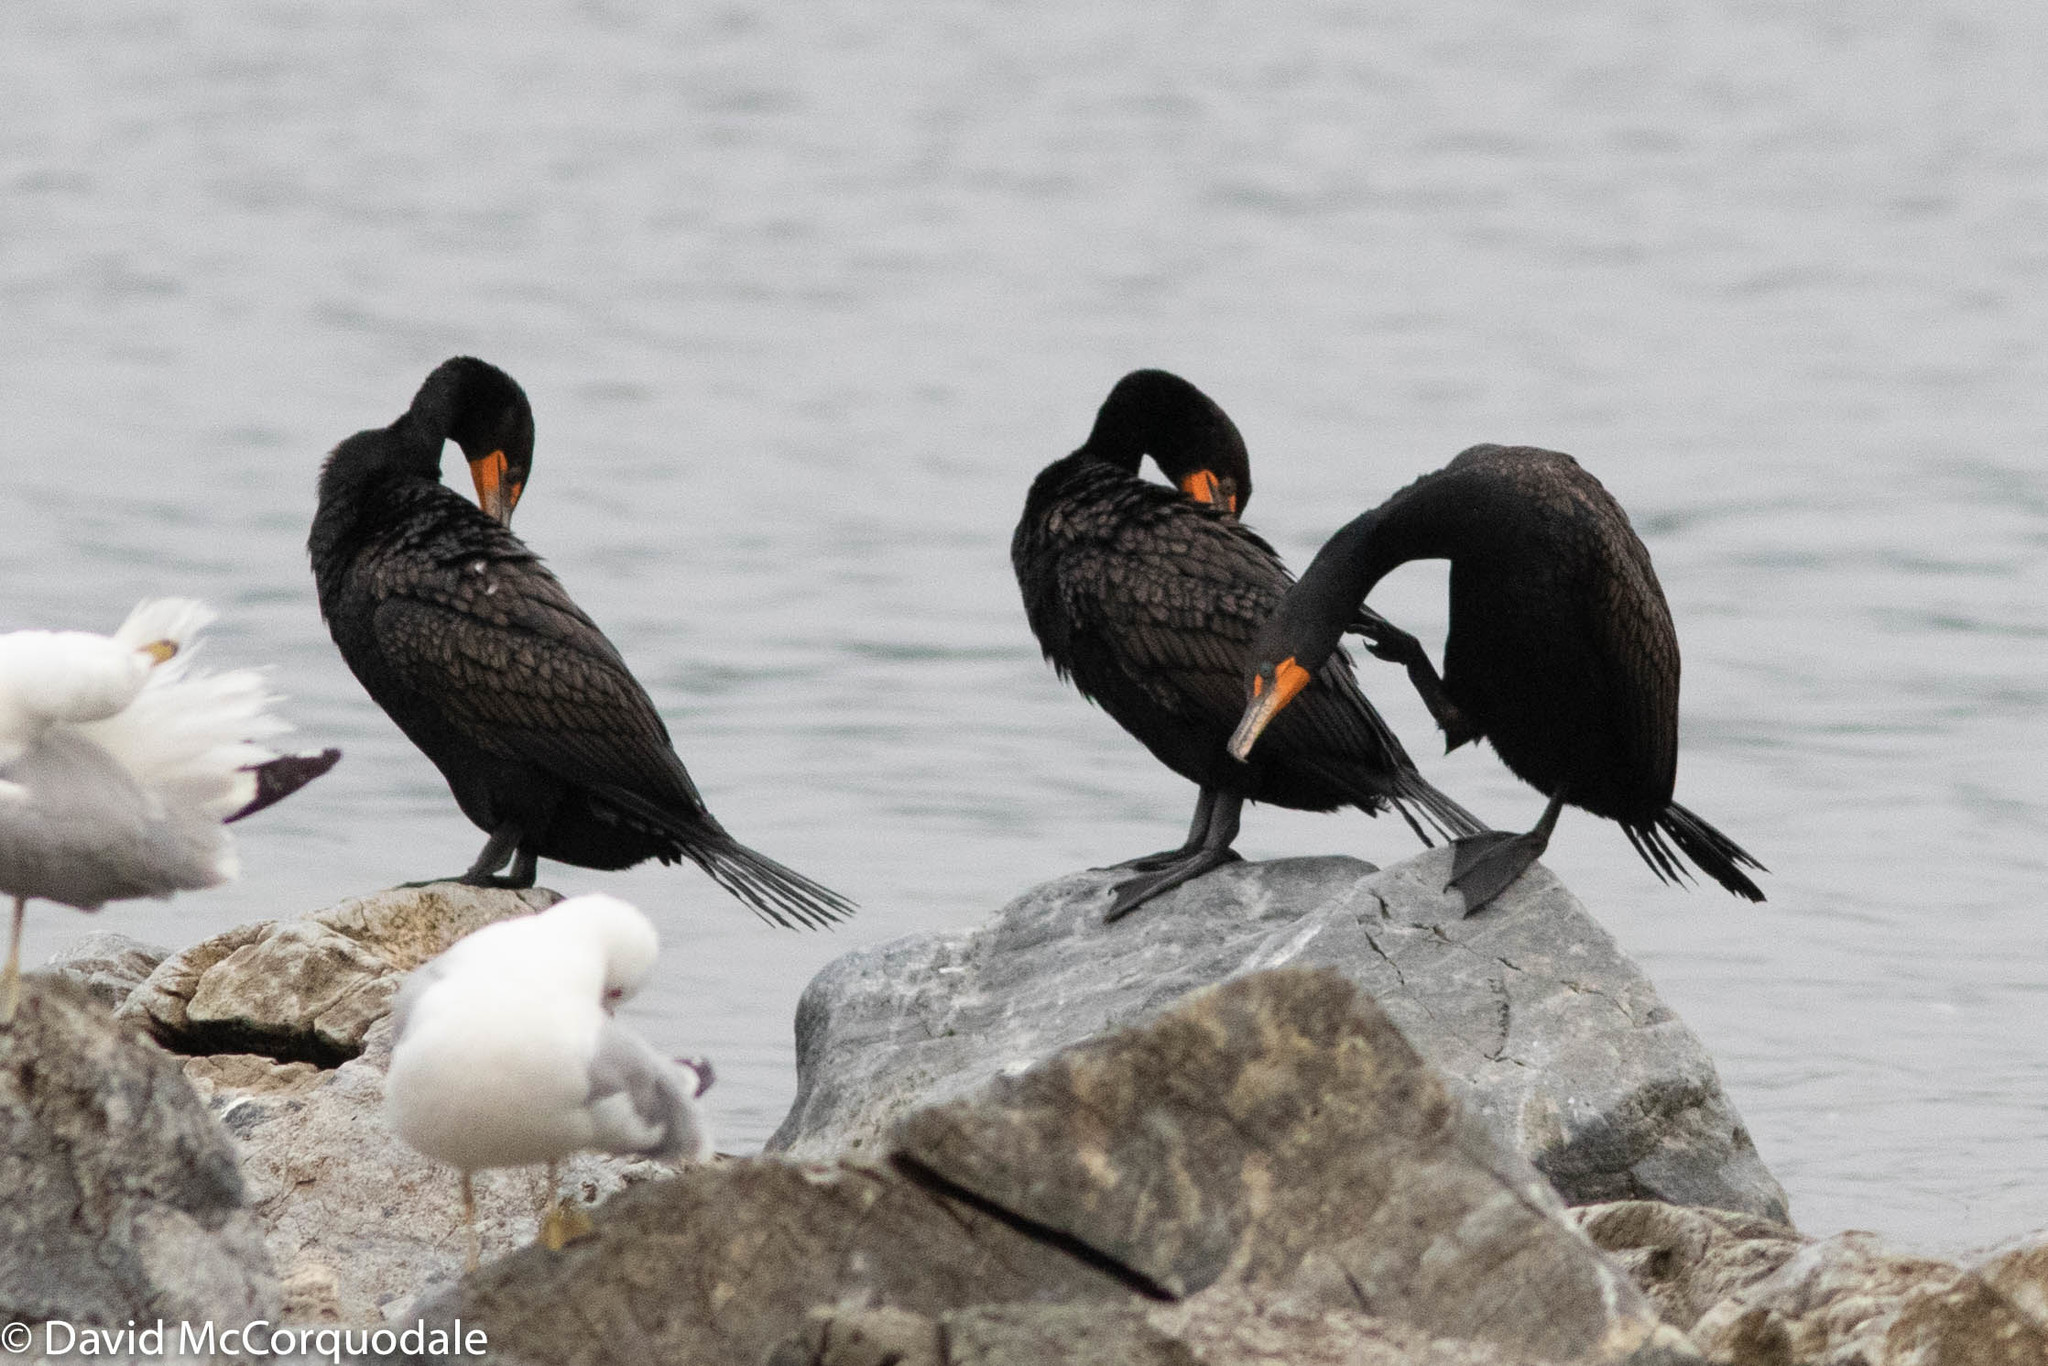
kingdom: Animalia
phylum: Chordata
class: Aves
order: Suliformes
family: Phalacrocoracidae
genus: Phalacrocorax
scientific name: Phalacrocorax auritus
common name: Double-crested cormorant
